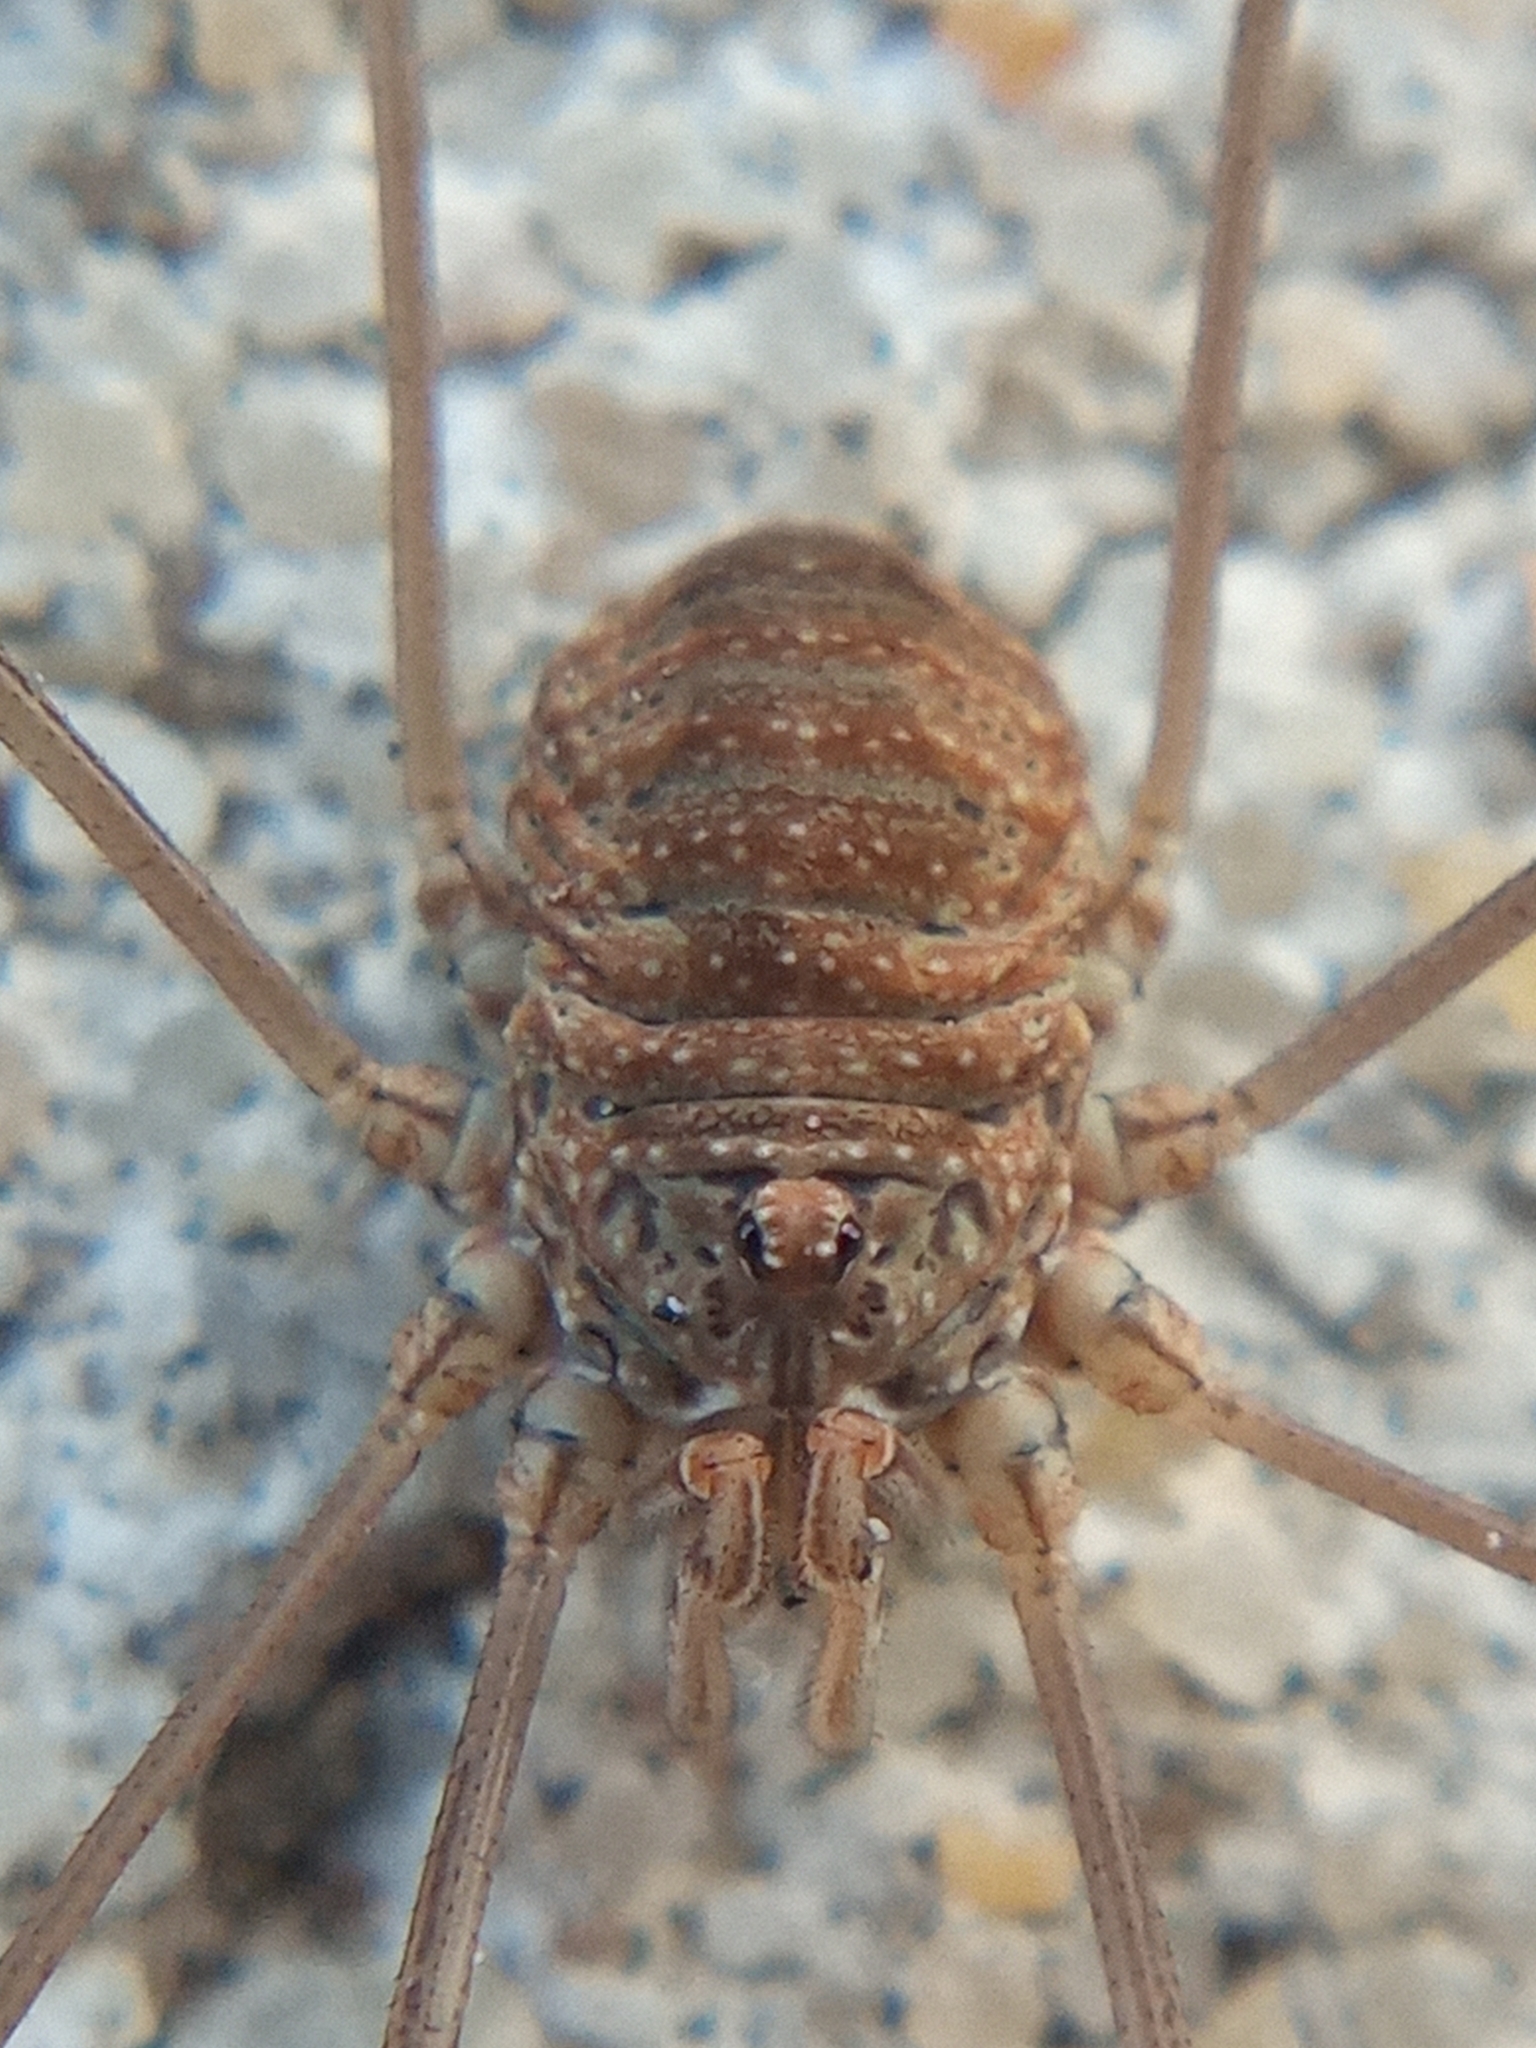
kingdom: Animalia
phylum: Arthropoda
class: Arachnida
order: Opiliones
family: Phalangiidae
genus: Phalangium
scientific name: Phalangium opilio
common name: Daddy longleg
